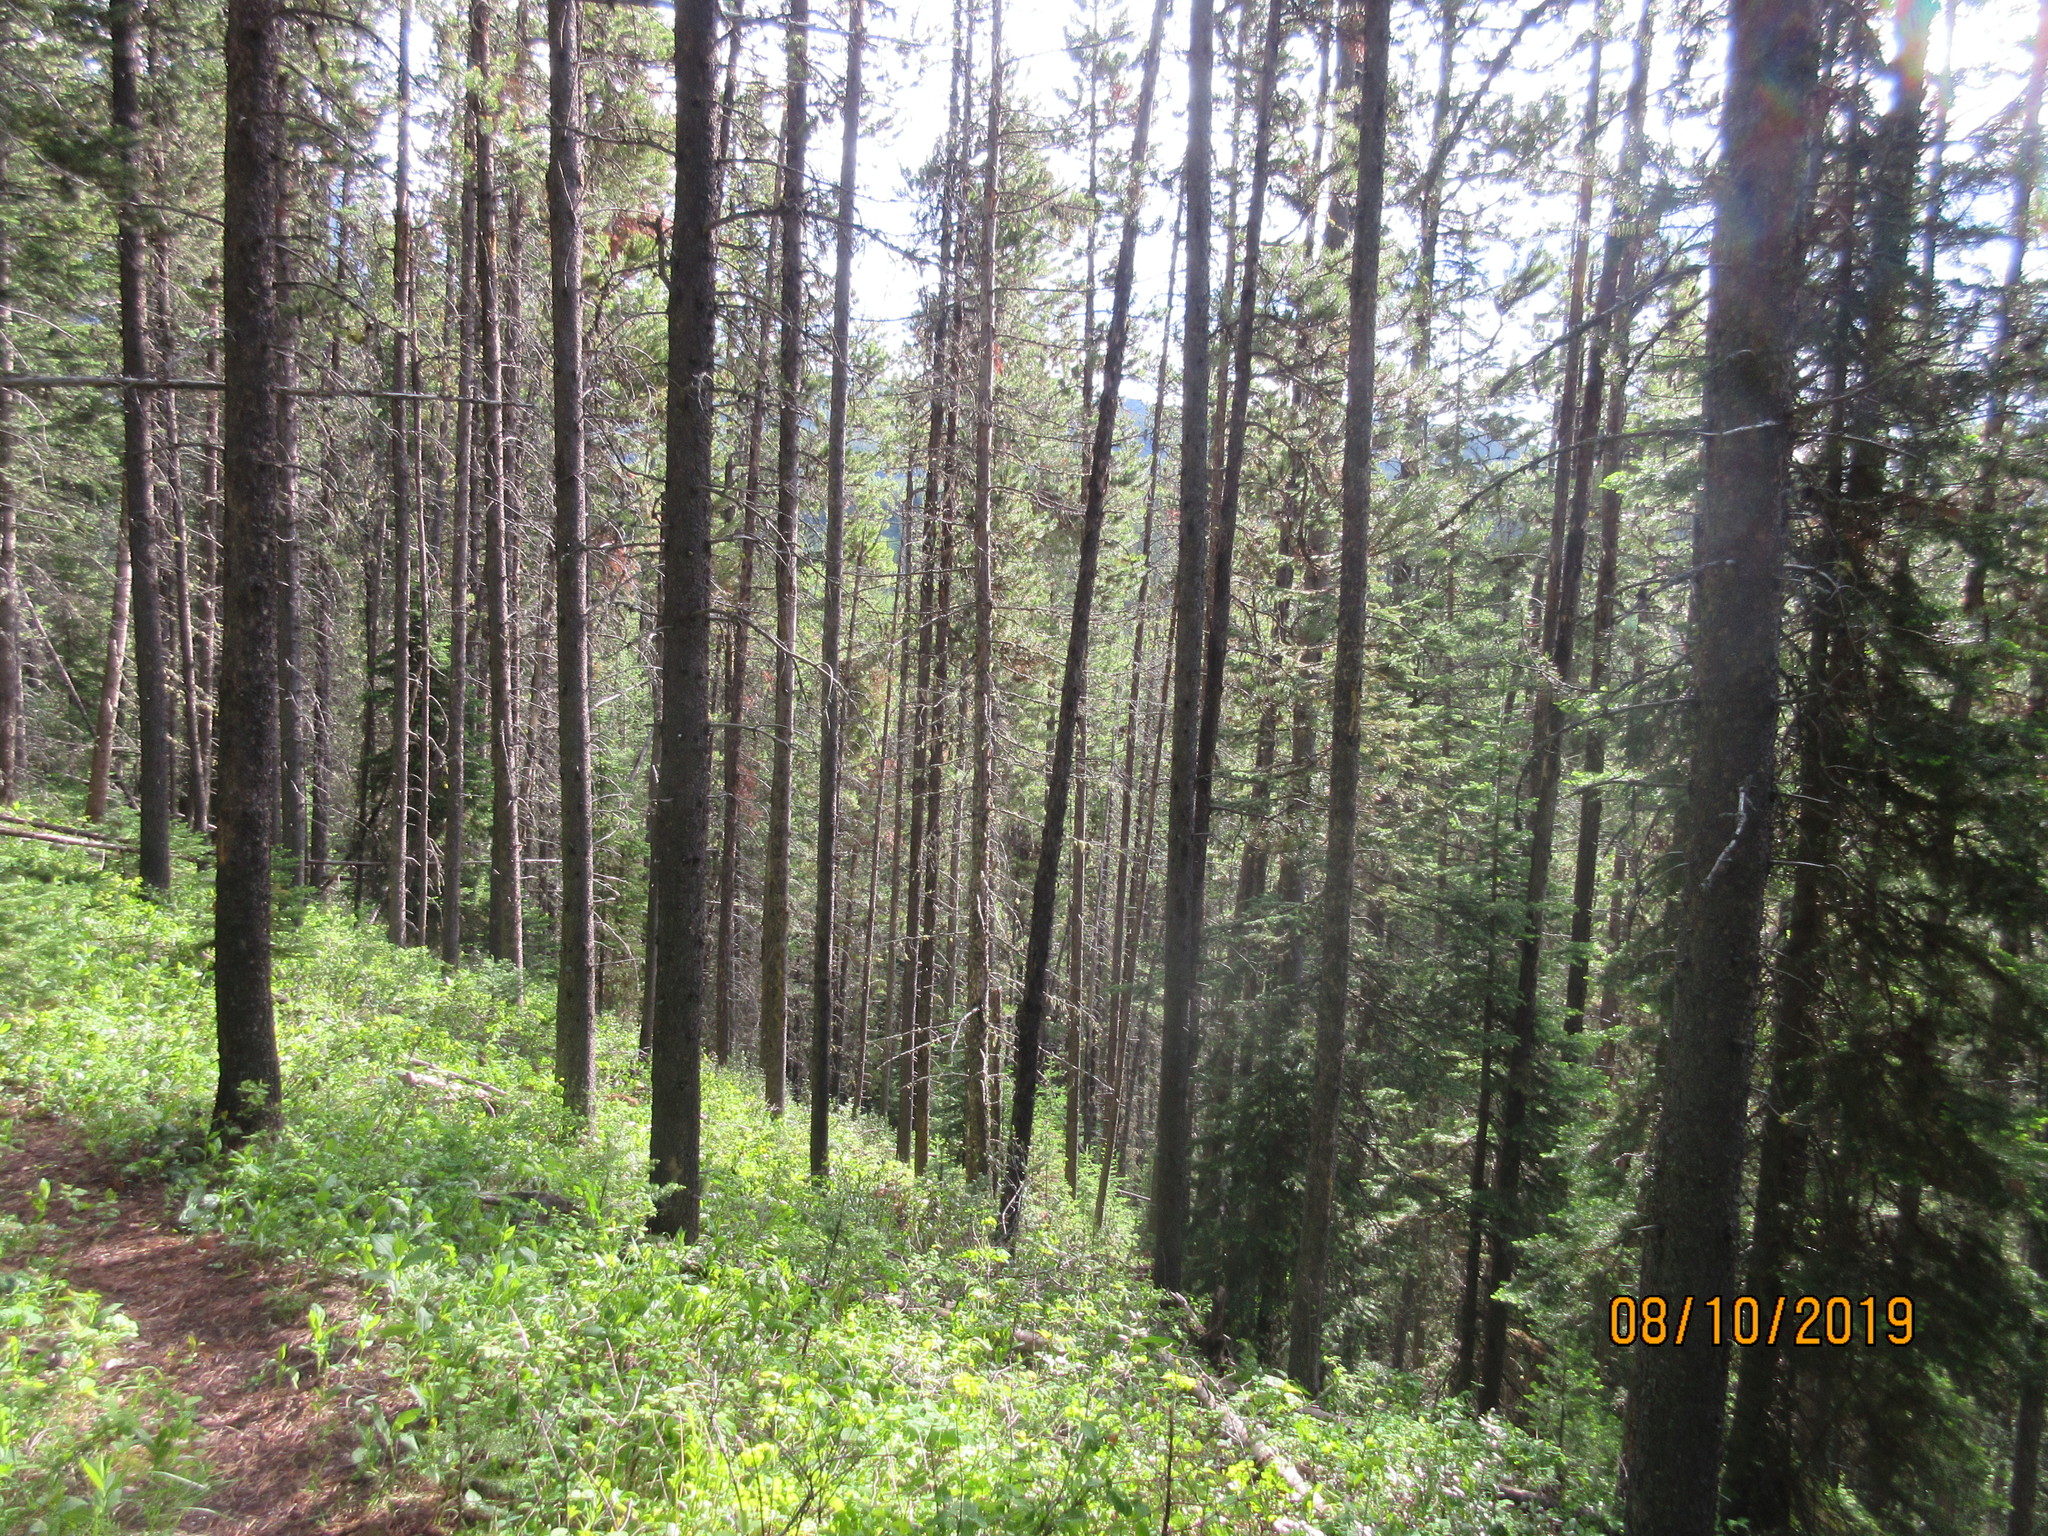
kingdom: Plantae
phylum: Tracheophyta
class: Pinopsida
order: Pinales
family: Pinaceae
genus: Pinus
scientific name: Pinus contorta
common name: Lodgepole pine
